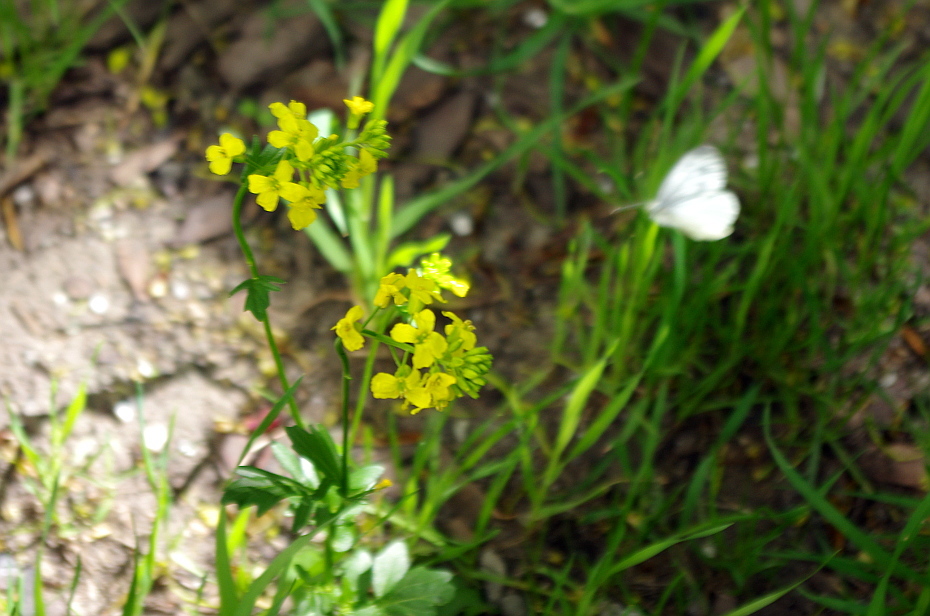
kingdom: Plantae
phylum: Tracheophyta
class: Magnoliopsida
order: Brassicales
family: Brassicaceae
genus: Barbarea
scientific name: Barbarea vulgaris
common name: Cressy-greens
